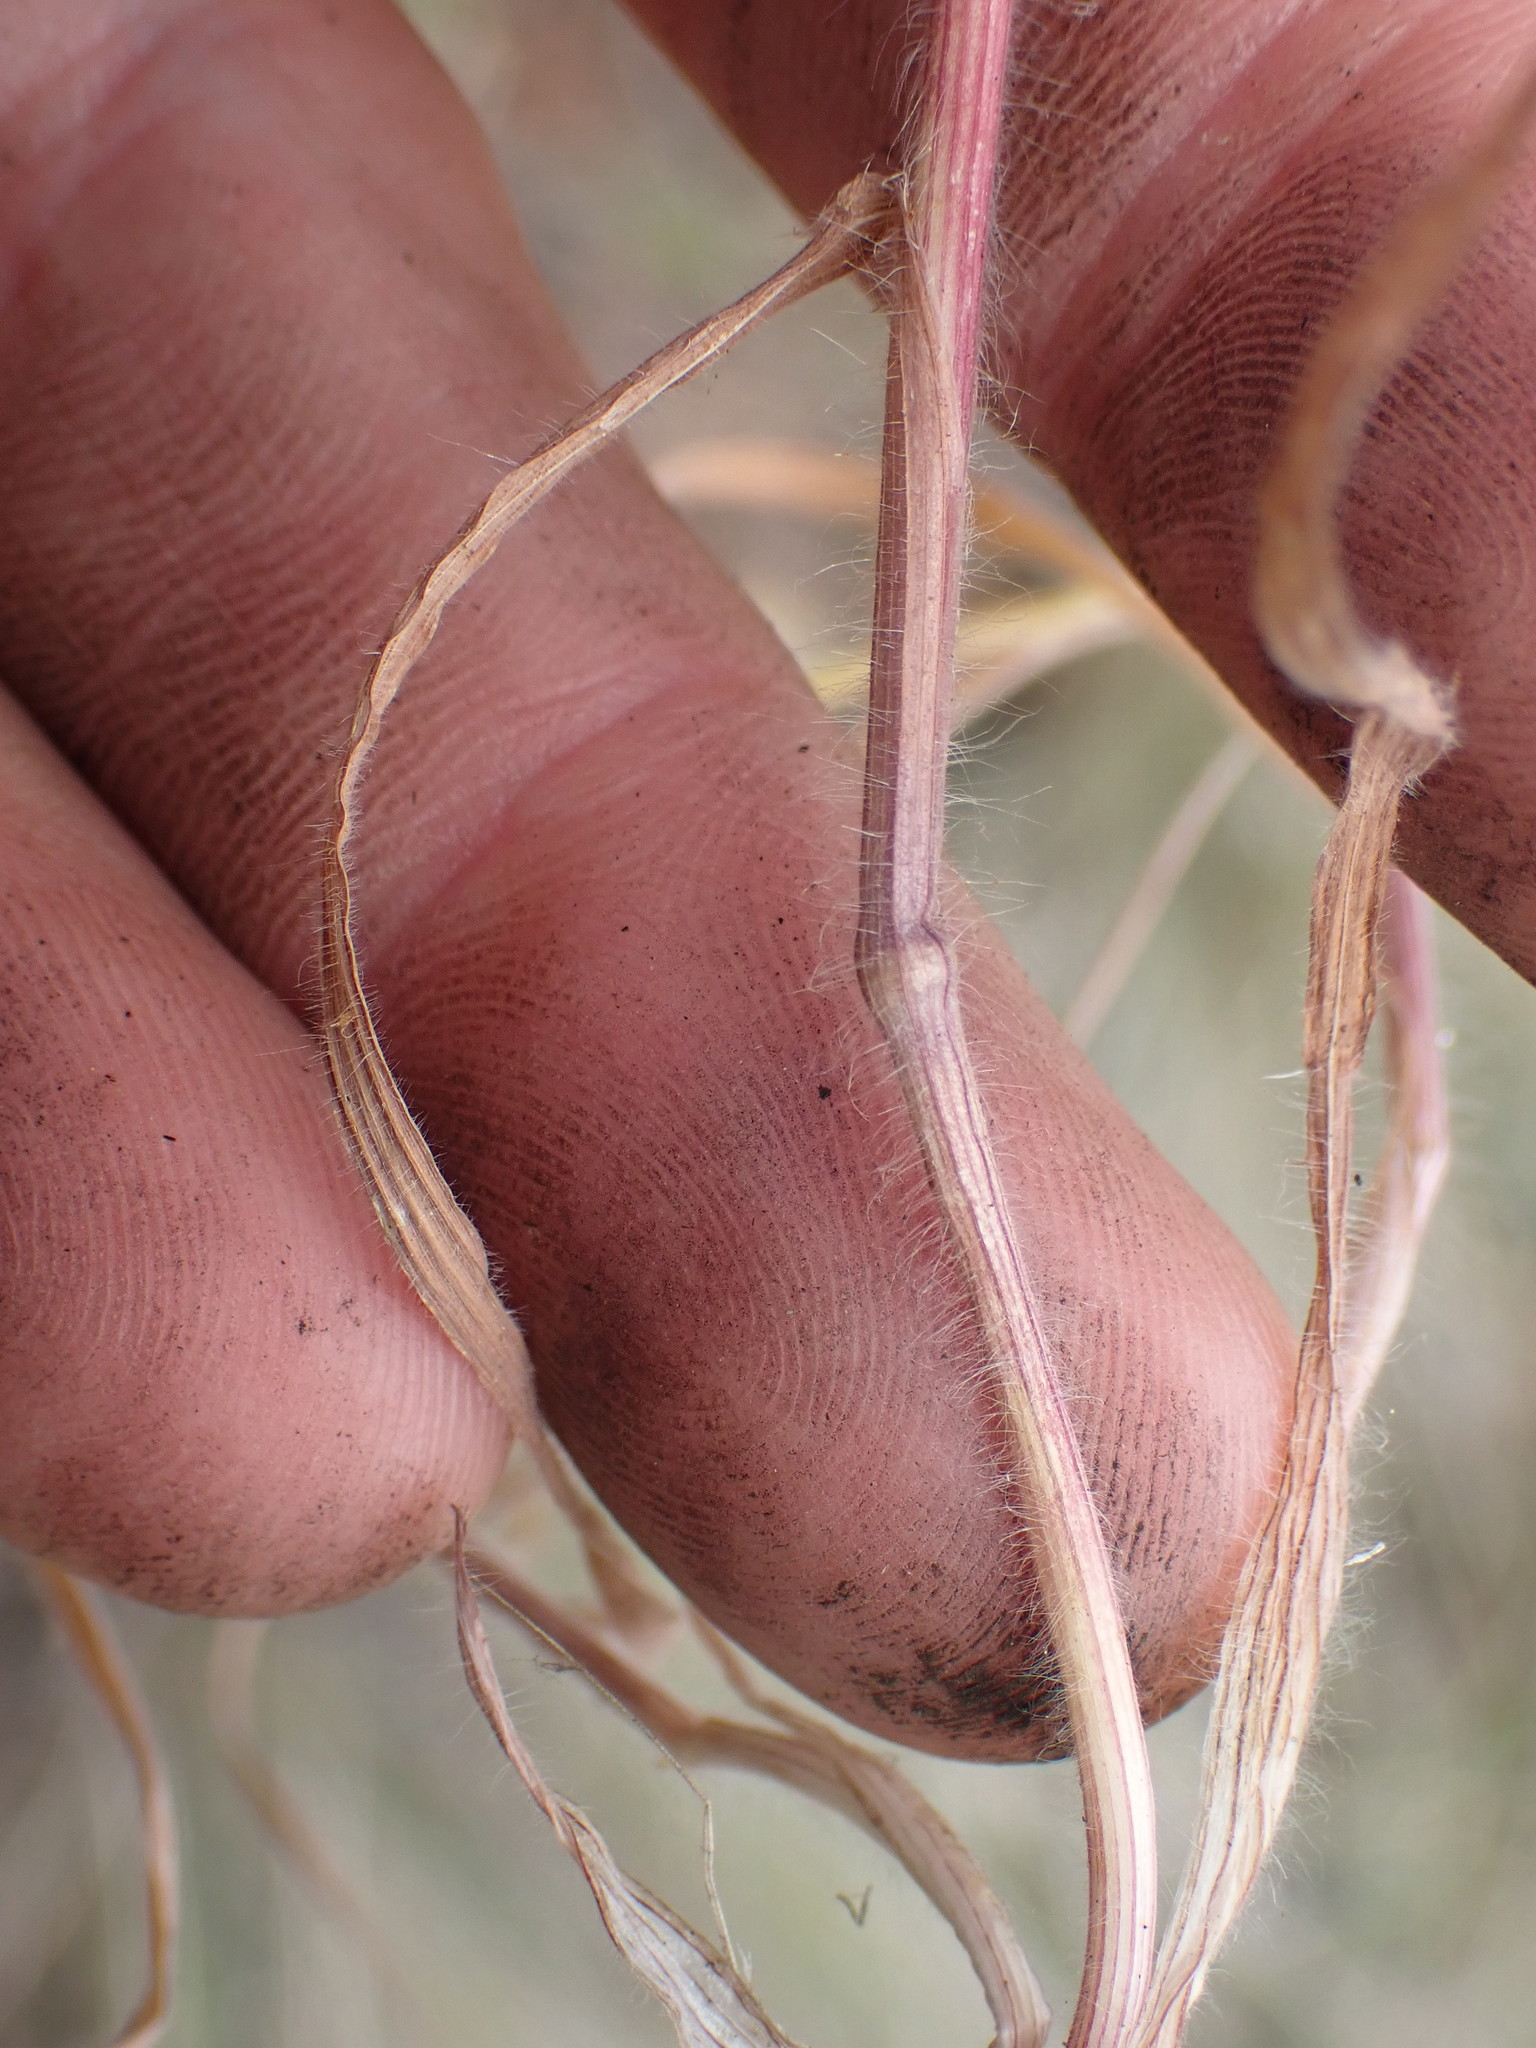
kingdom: Plantae
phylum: Tracheophyta
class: Liliopsida
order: Poales
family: Poaceae
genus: Bromus
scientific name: Bromus tectorum
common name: Cheatgrass
